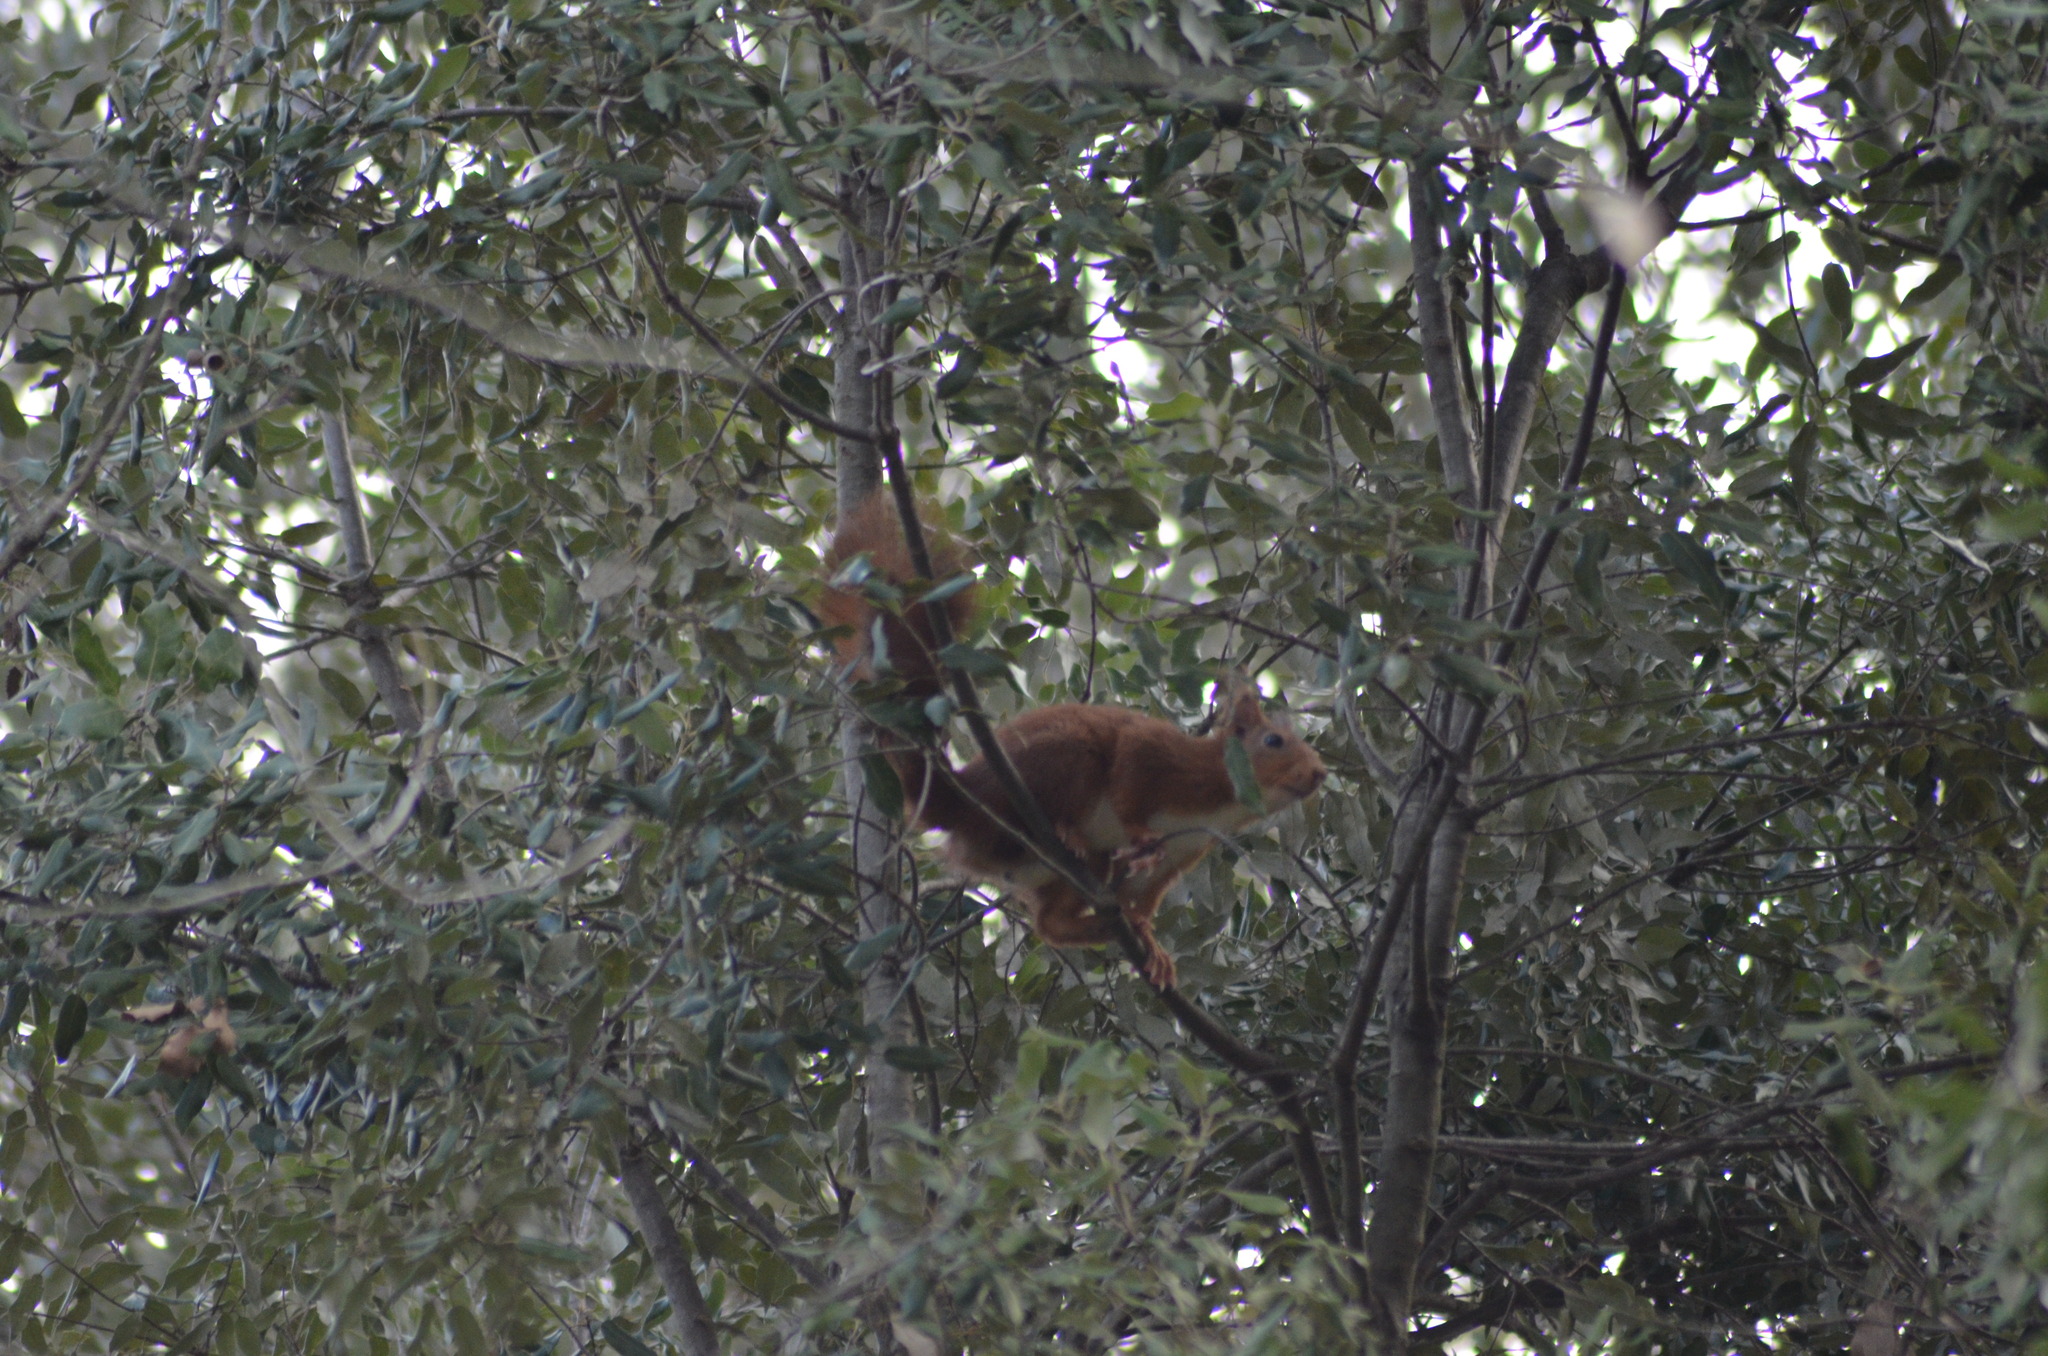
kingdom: Animalia
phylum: Chordata
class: Mammalia
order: Rodentia
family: Sciuridae
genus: Sciurus
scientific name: Sciurus vulgaris
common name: Eurasian red squirrel
